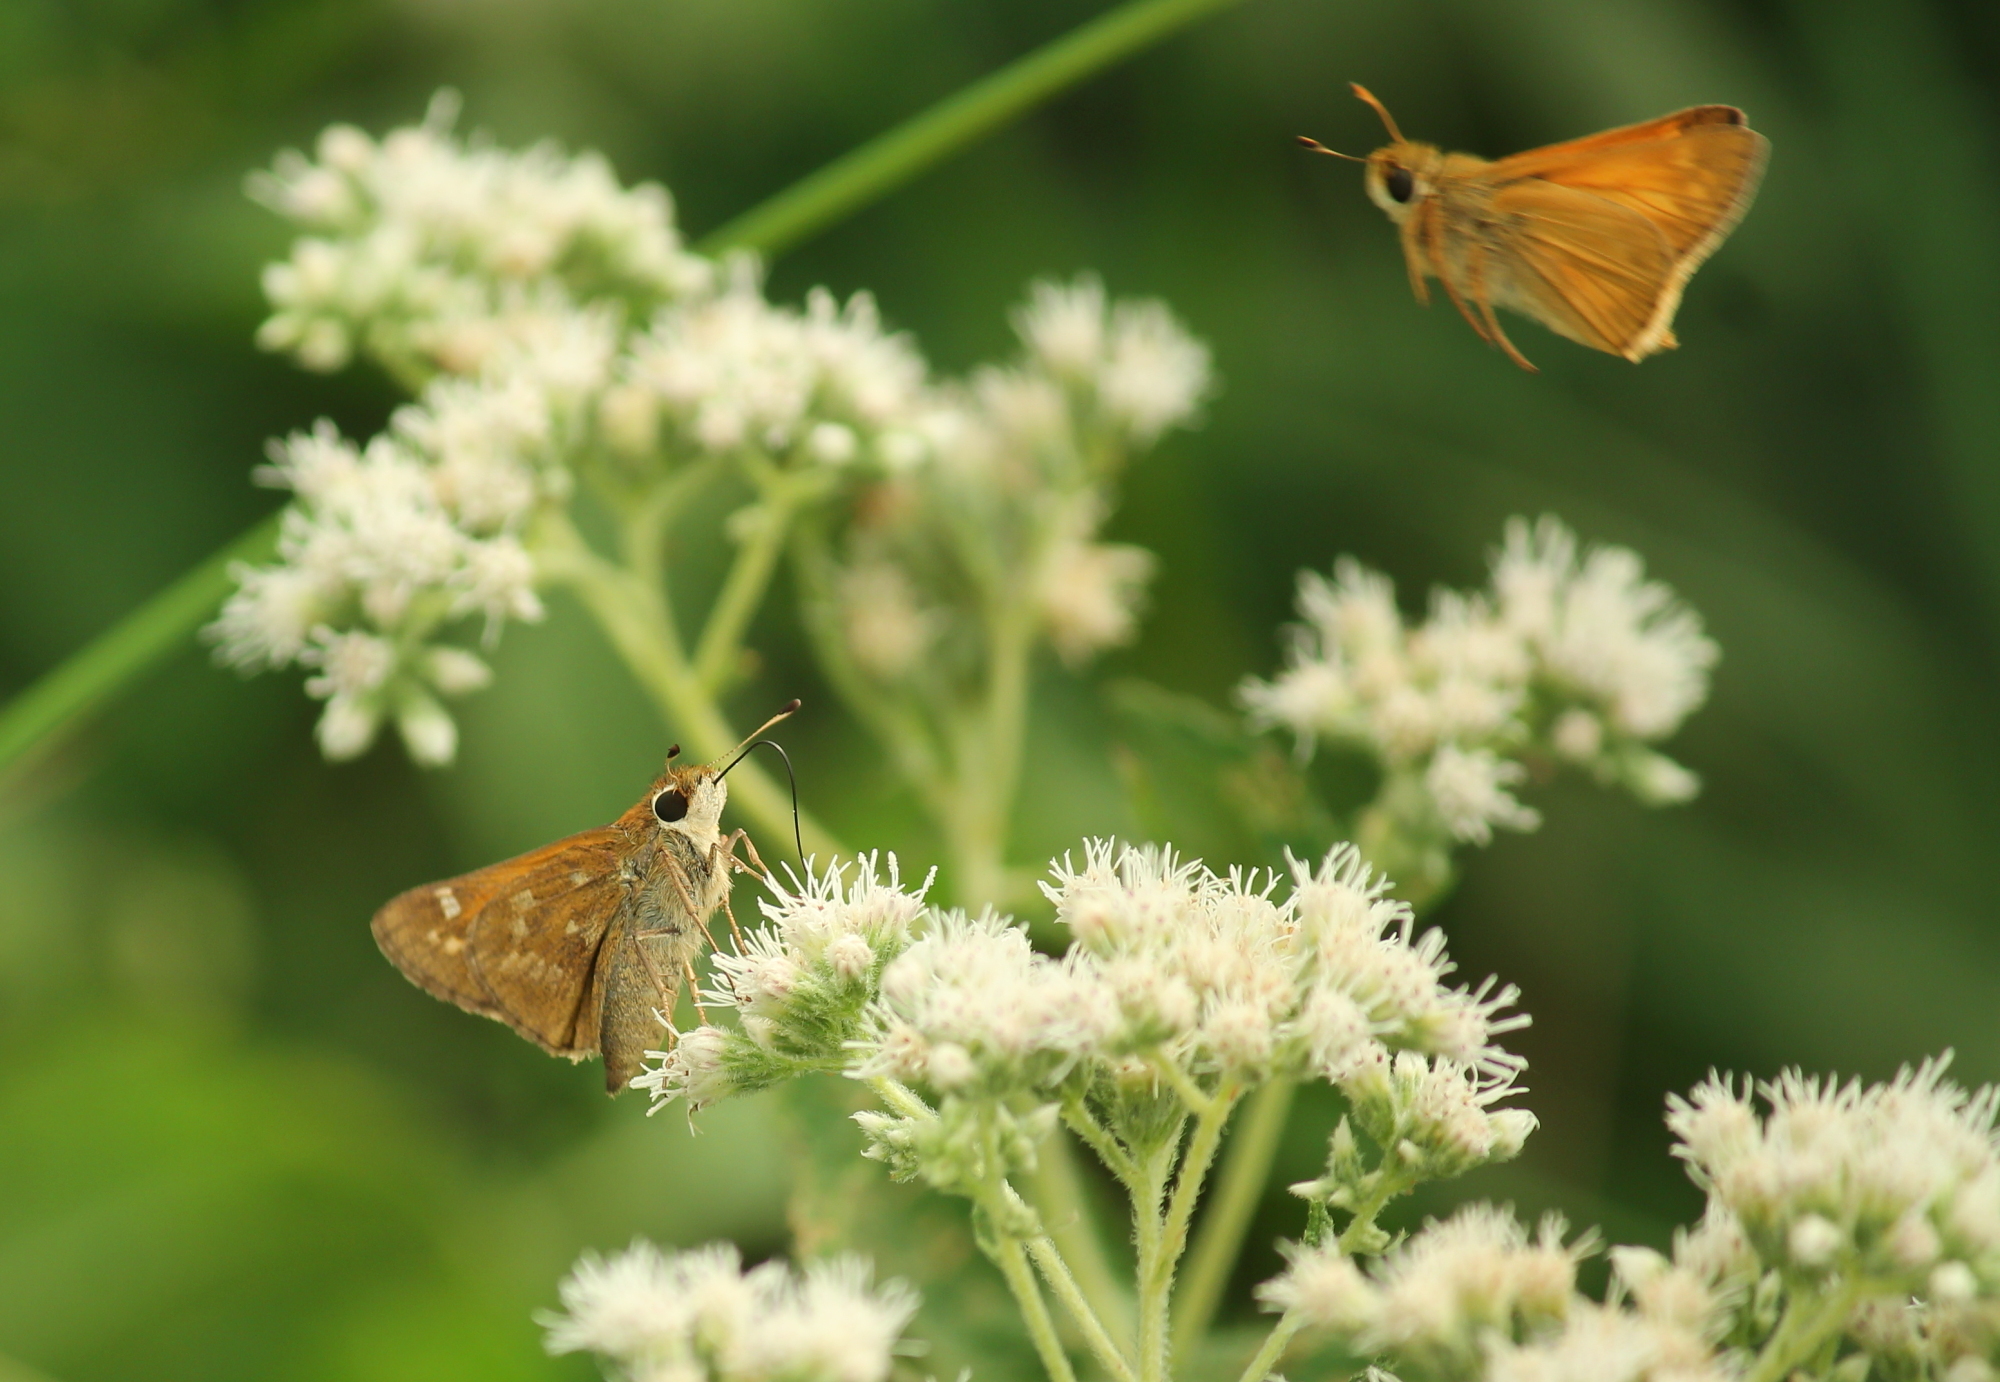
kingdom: Animalia
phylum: Arthropoda
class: Insecta
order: Lepidoptera
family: Hesperiidae
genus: Atalopedes
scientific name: Atalopedes
